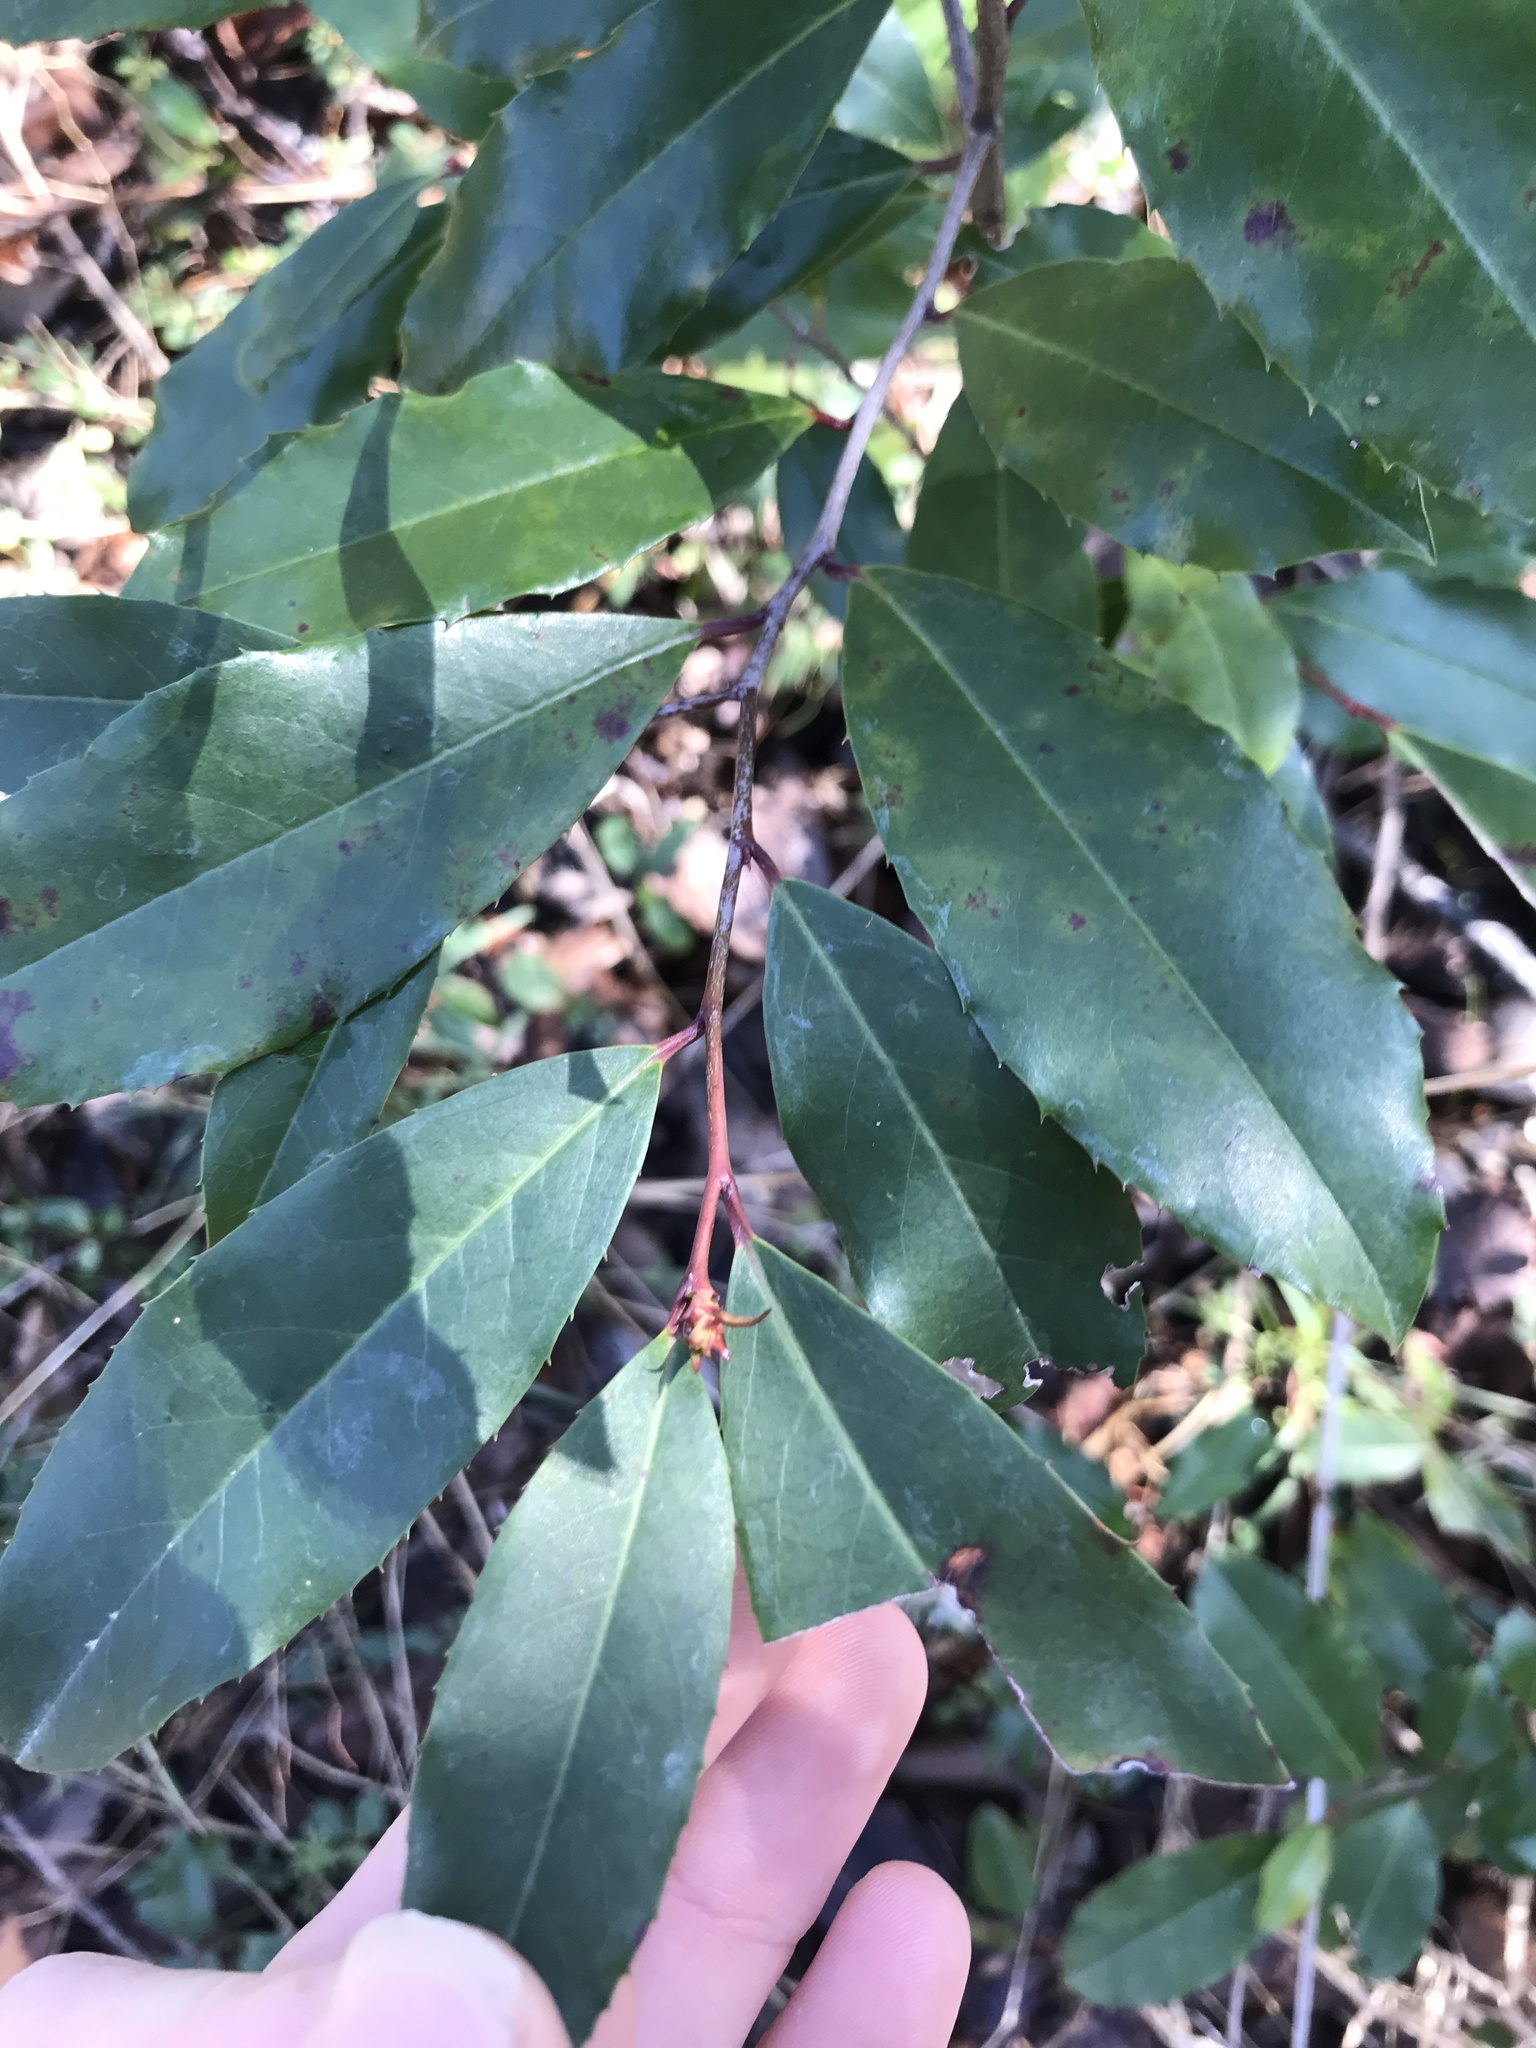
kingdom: Plantae
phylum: Tracheophyta
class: Magnoliopsida
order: Rosales
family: Rosaceae
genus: Prunus
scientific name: Prunus caroliniana
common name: Carolina laurel cherry
